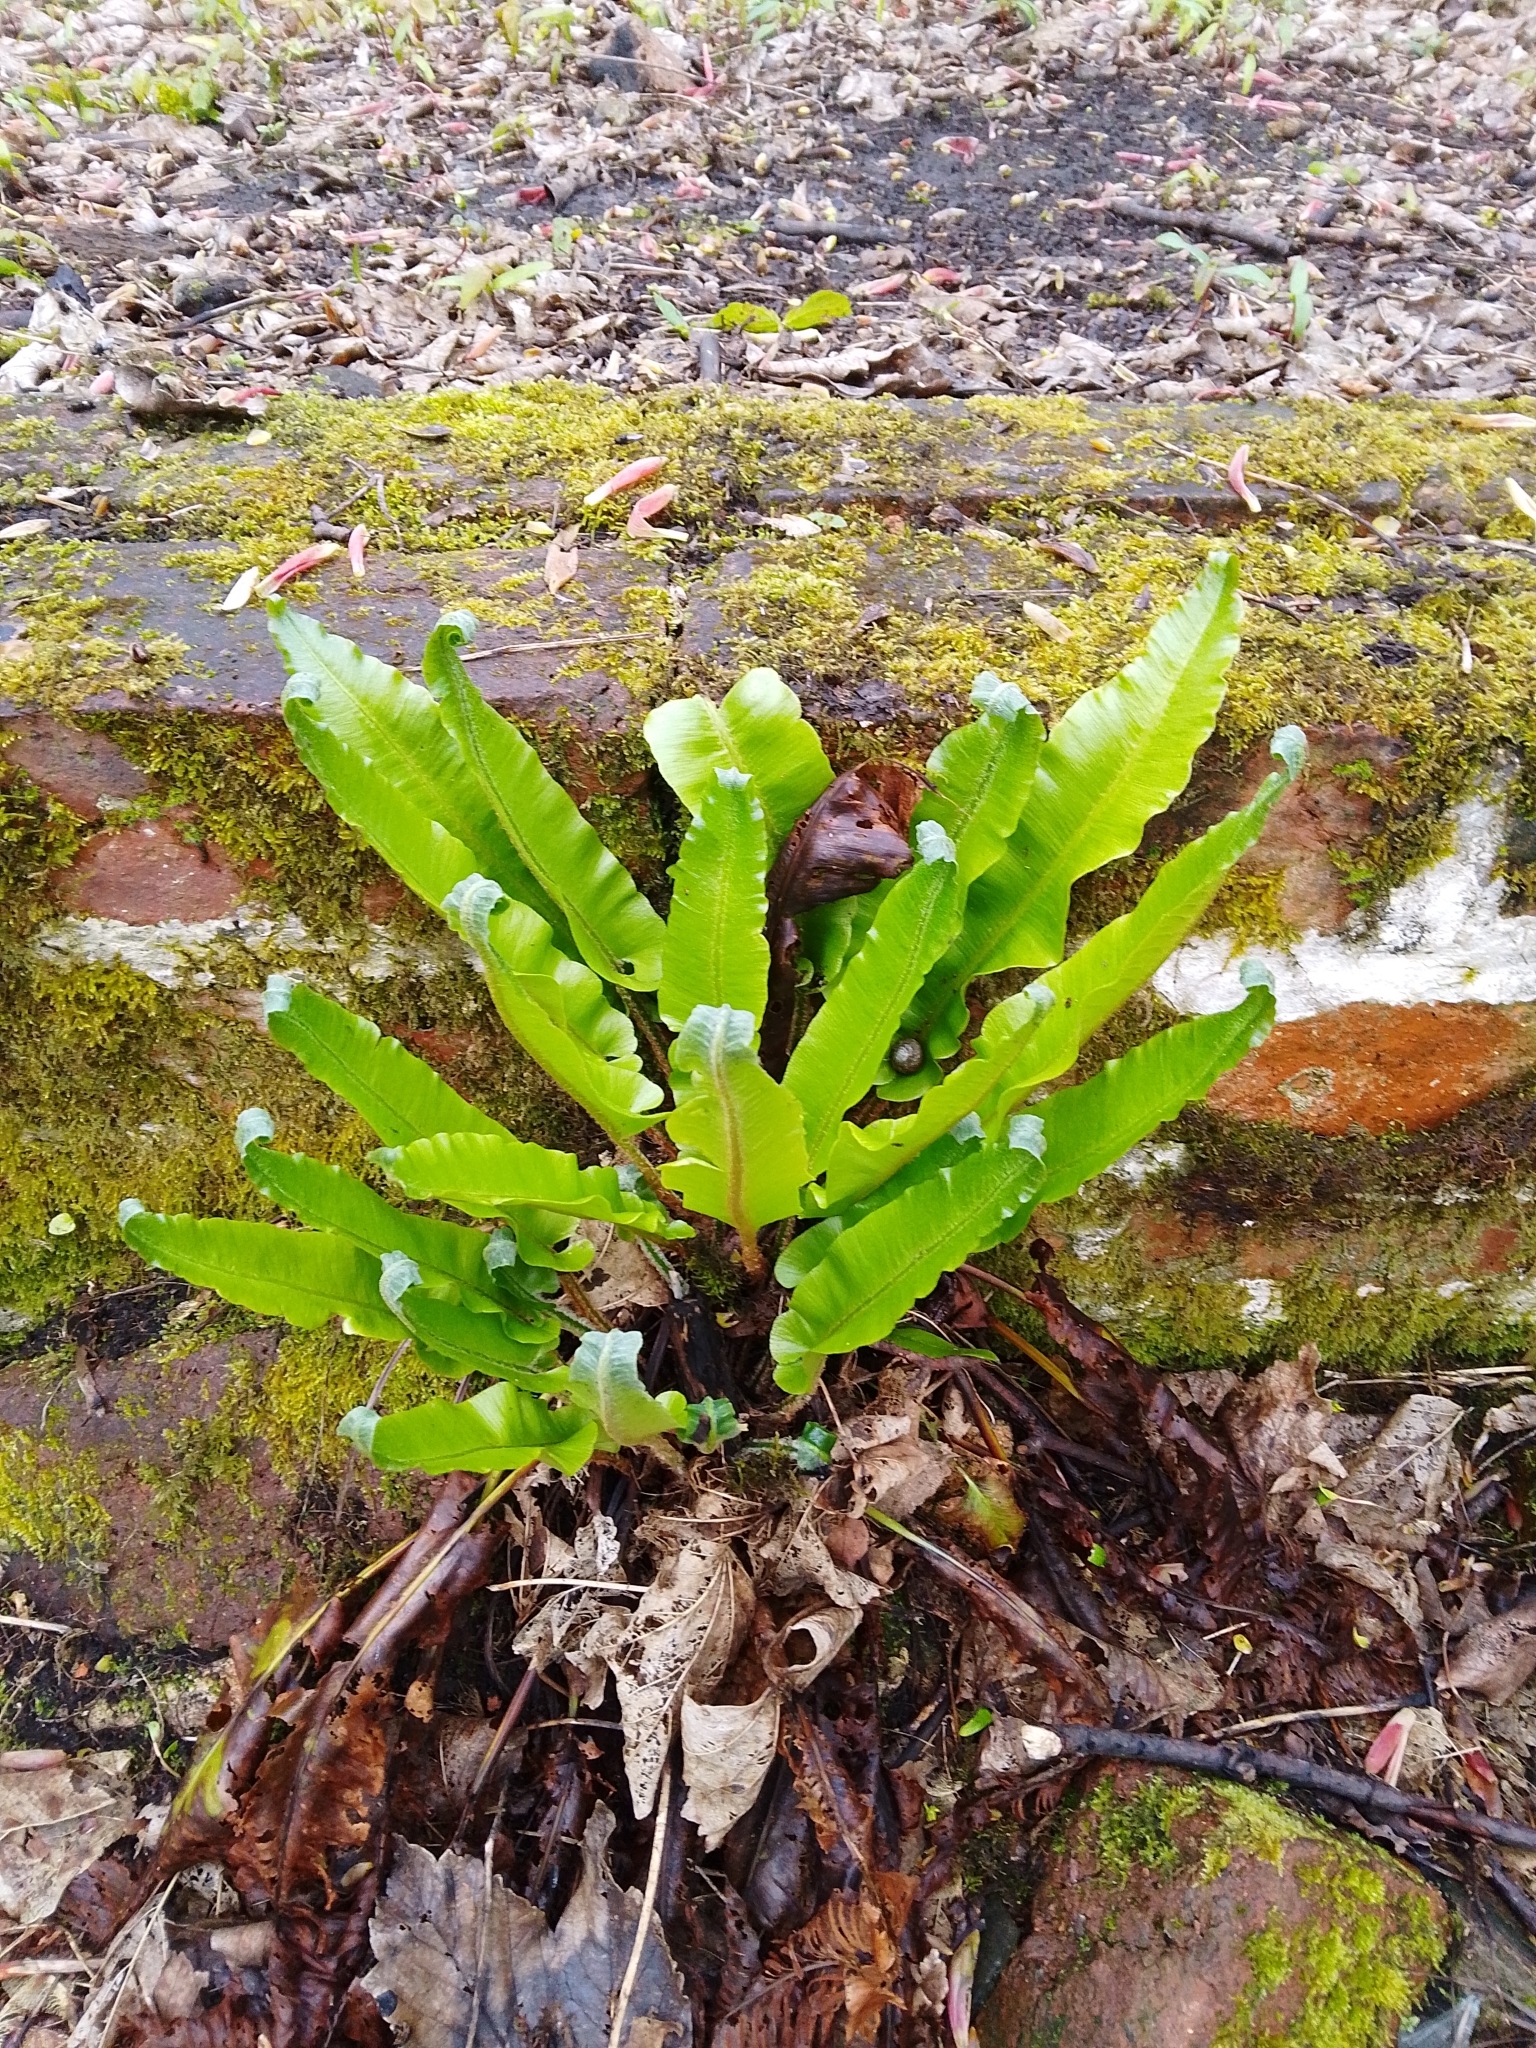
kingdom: Plantae
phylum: Tracheophyta
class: Polypodiopsida
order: Polypodiales
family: Aspleniaceae
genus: Asplenium
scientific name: Asplenium scolopendrium
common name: Hart's-tongue fern
